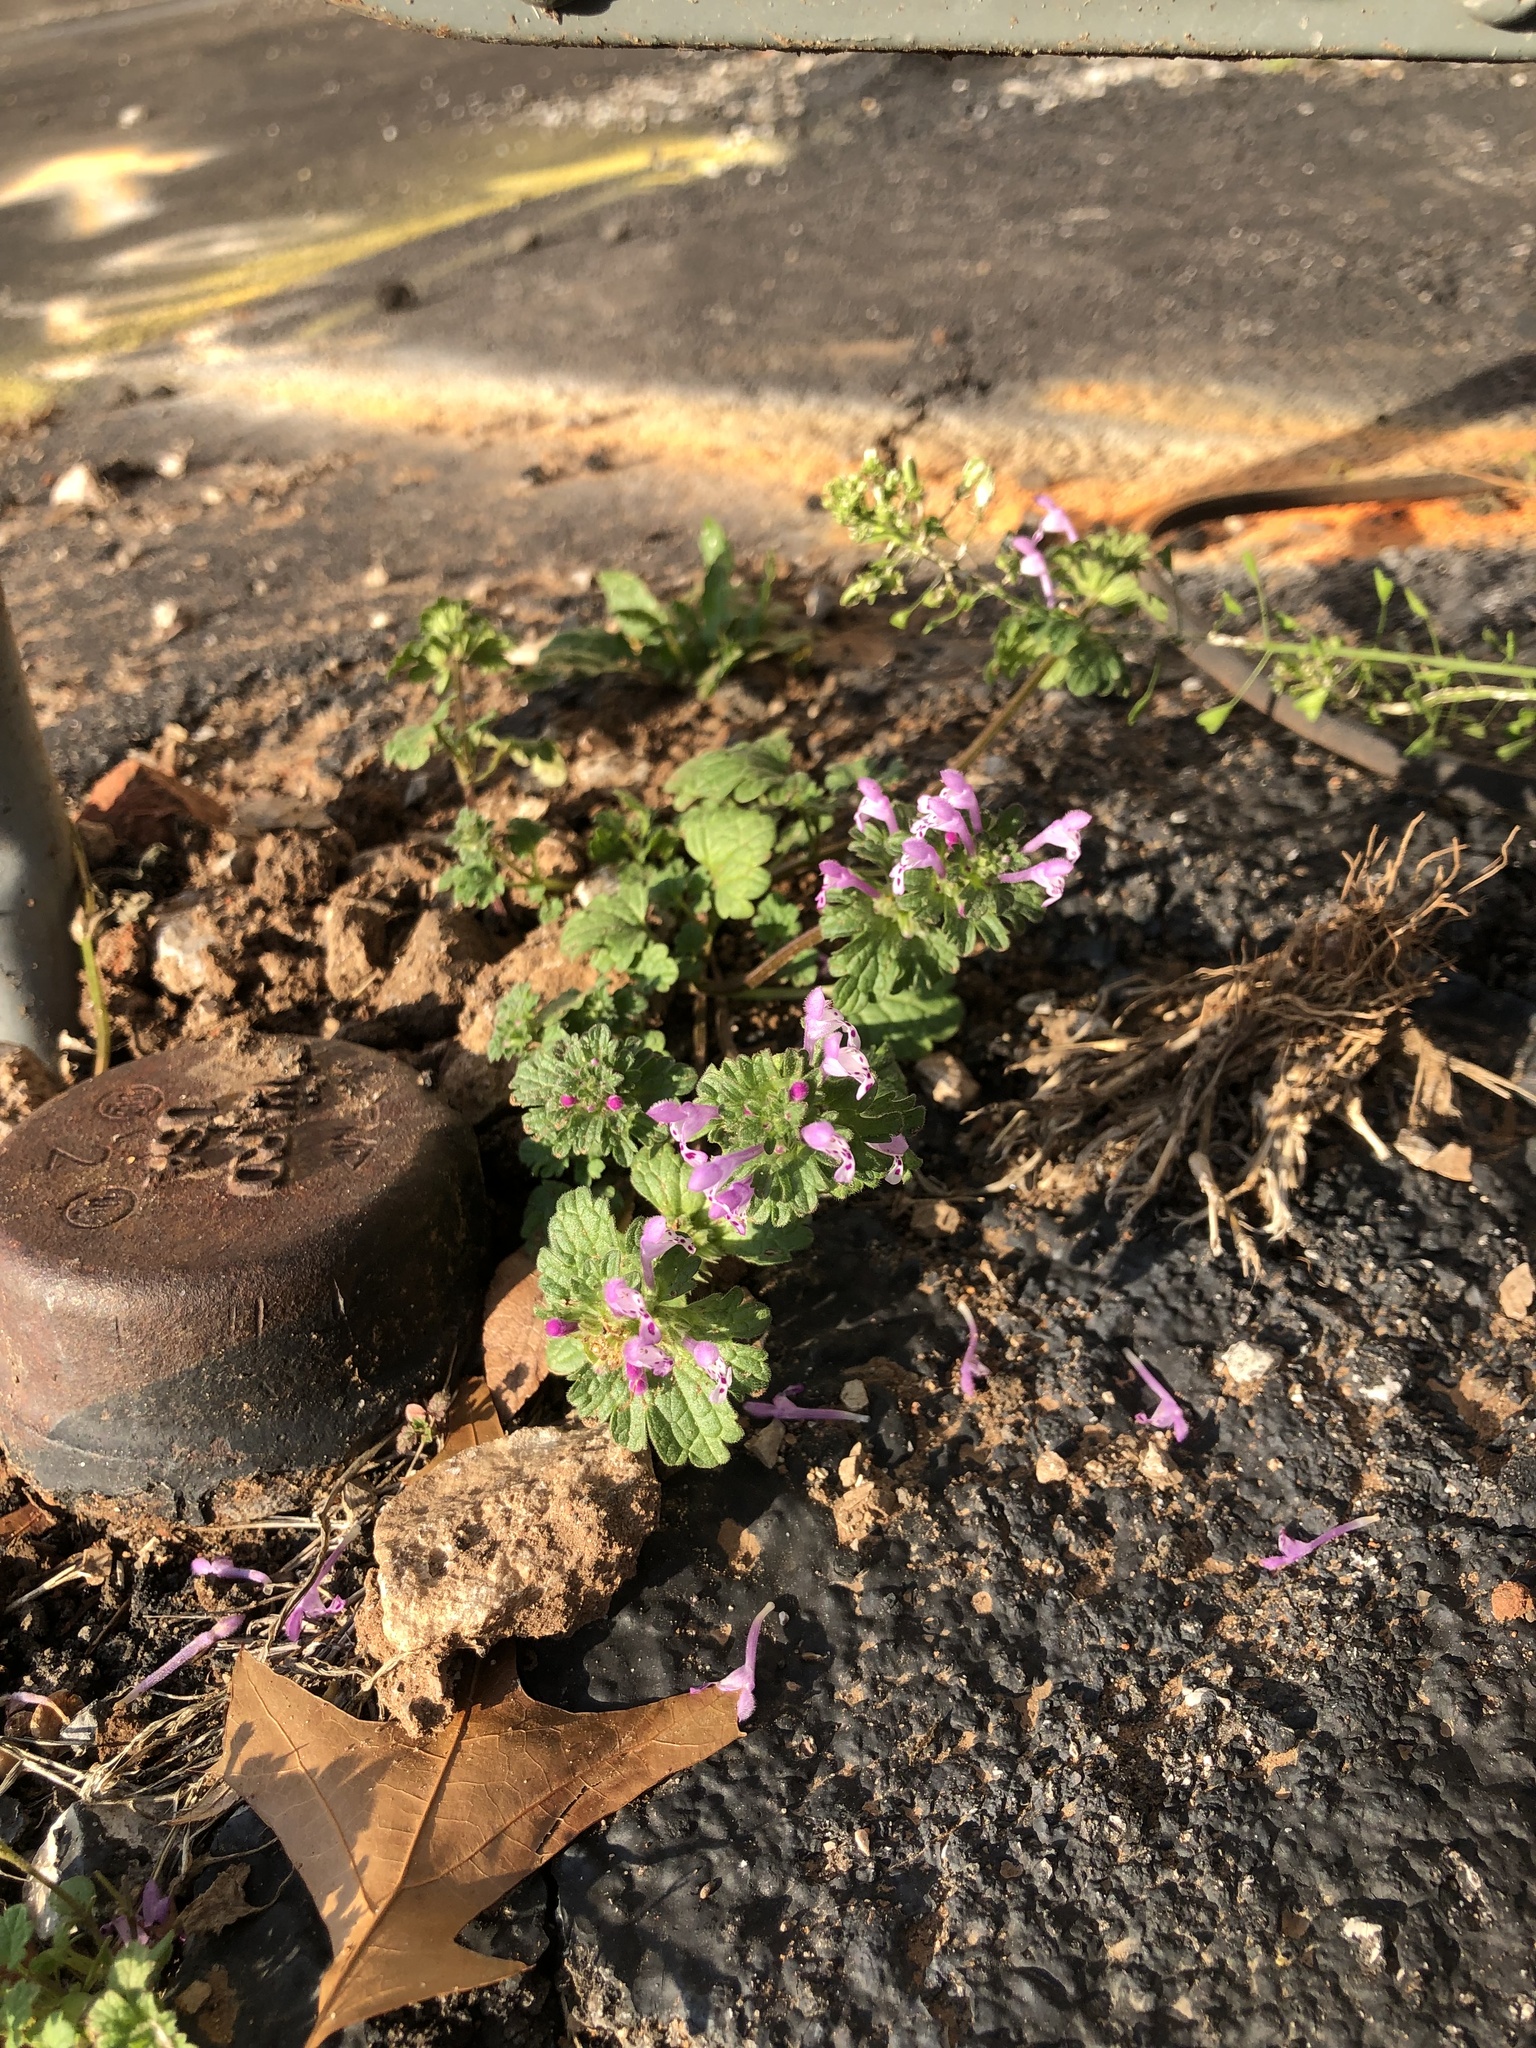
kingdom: Plantae
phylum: Tracheophyta
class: Magnoliopsida
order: Lamiales
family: Lamiaceae
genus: Lamium
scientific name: Lamium amplexicaule
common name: Henbit dead-nettle
